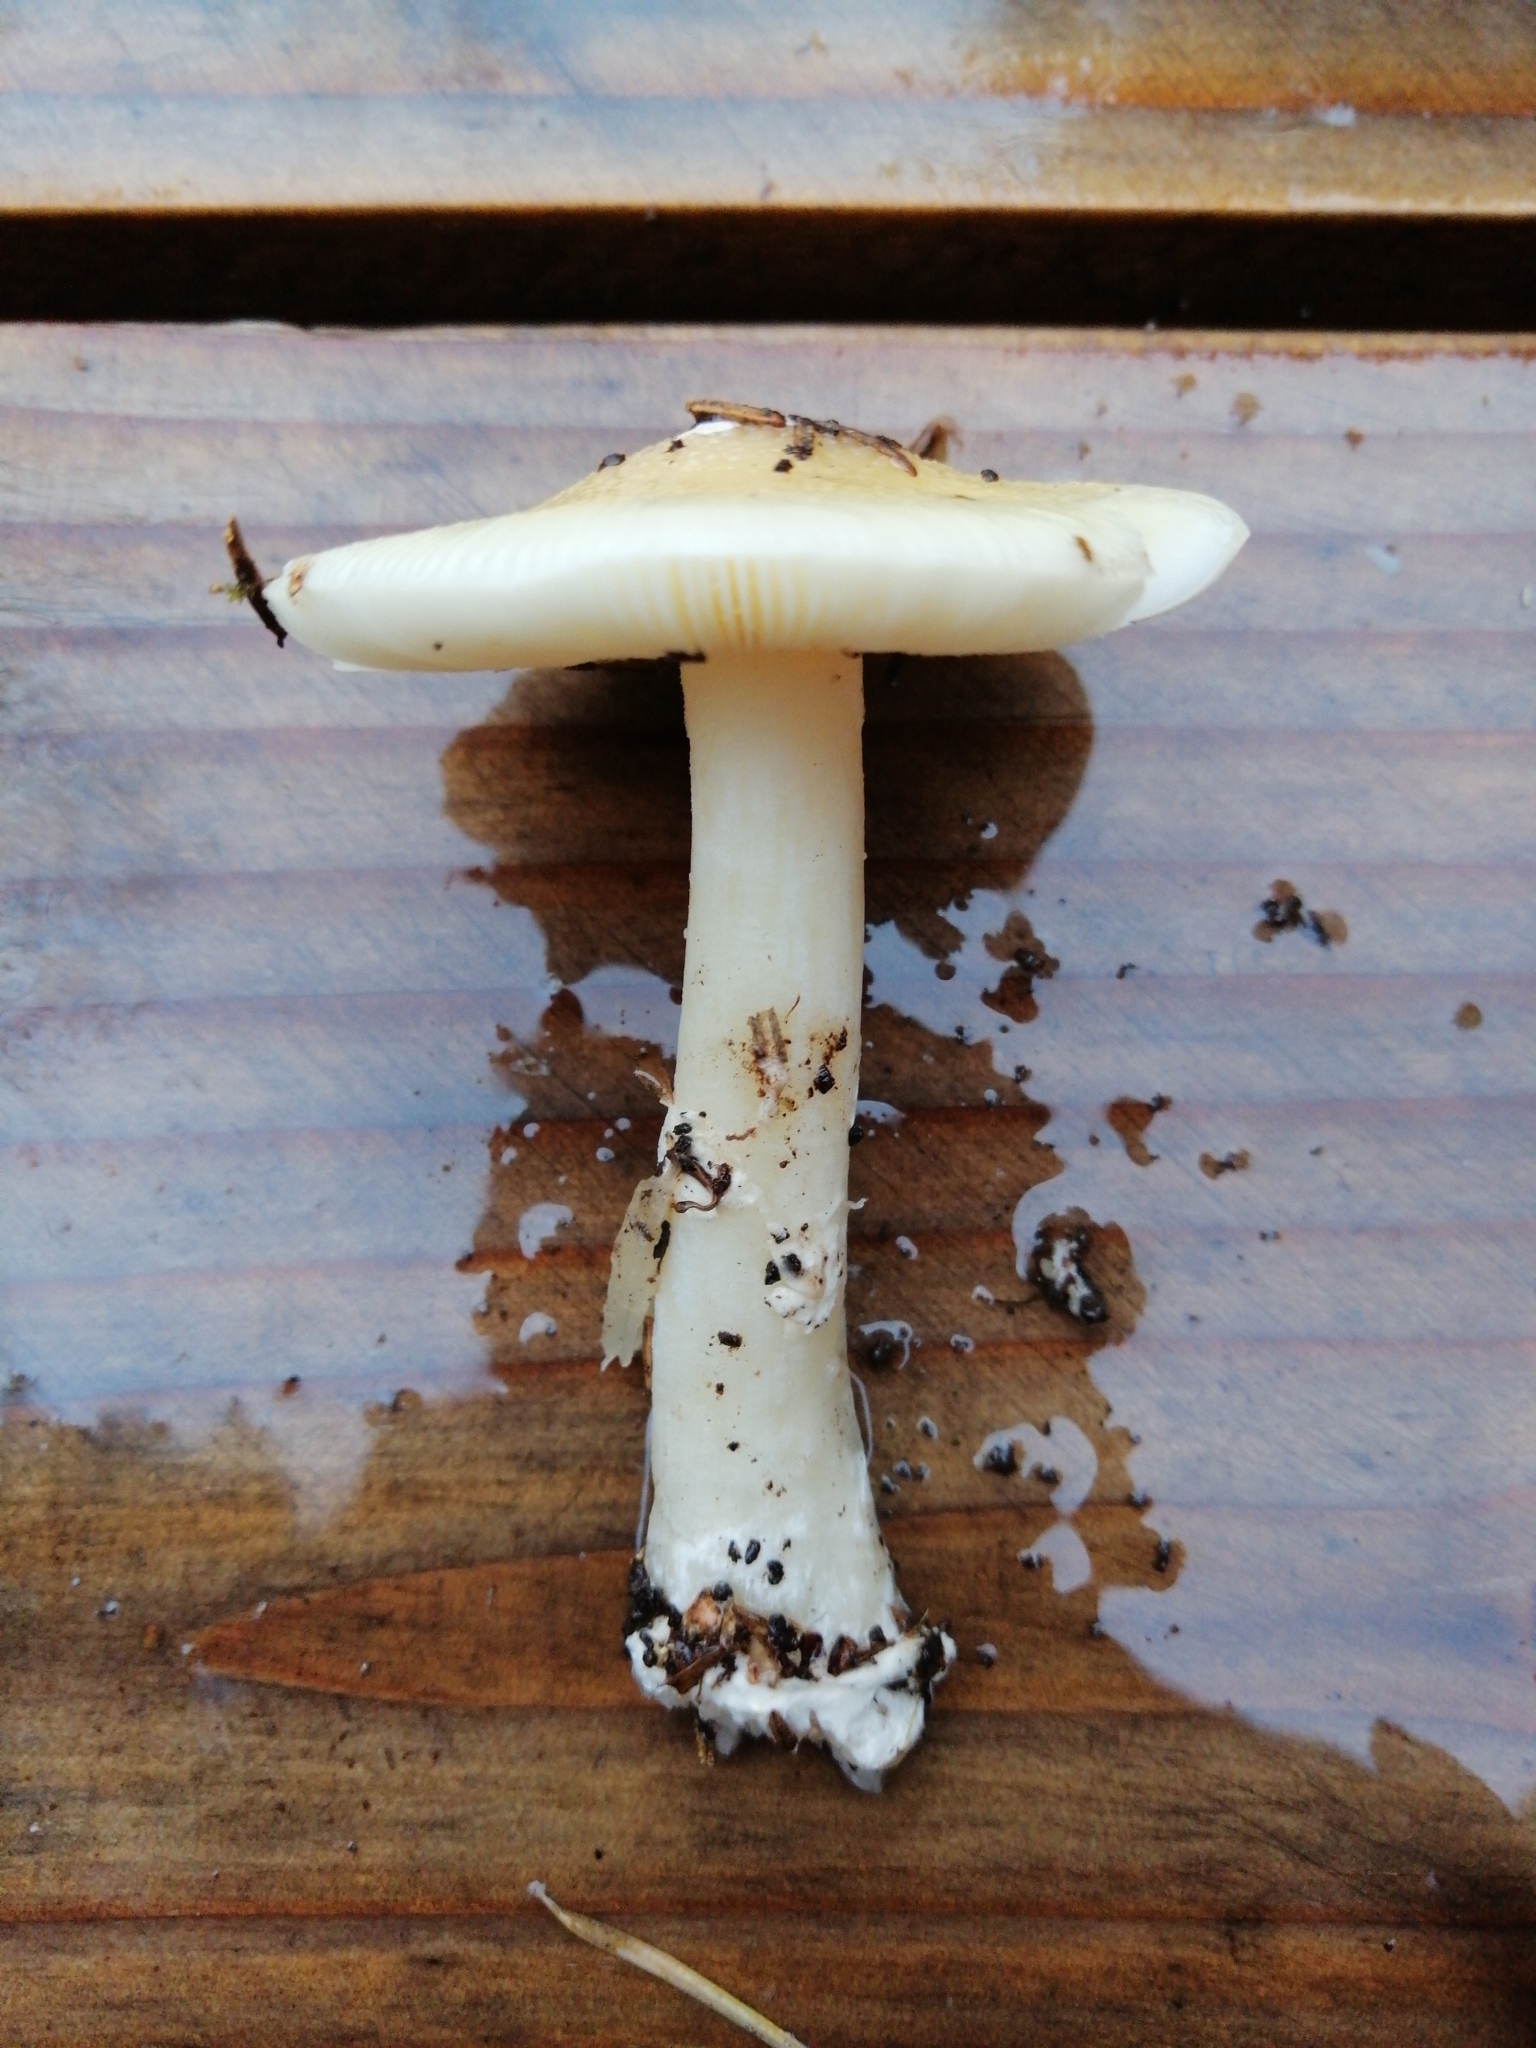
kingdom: Fungi
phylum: Basidiomycota
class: Agaricomycetes
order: Agaricales
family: Amanitaceae
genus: Amanita
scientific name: Amanita gemmata
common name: Jewelled amanita
